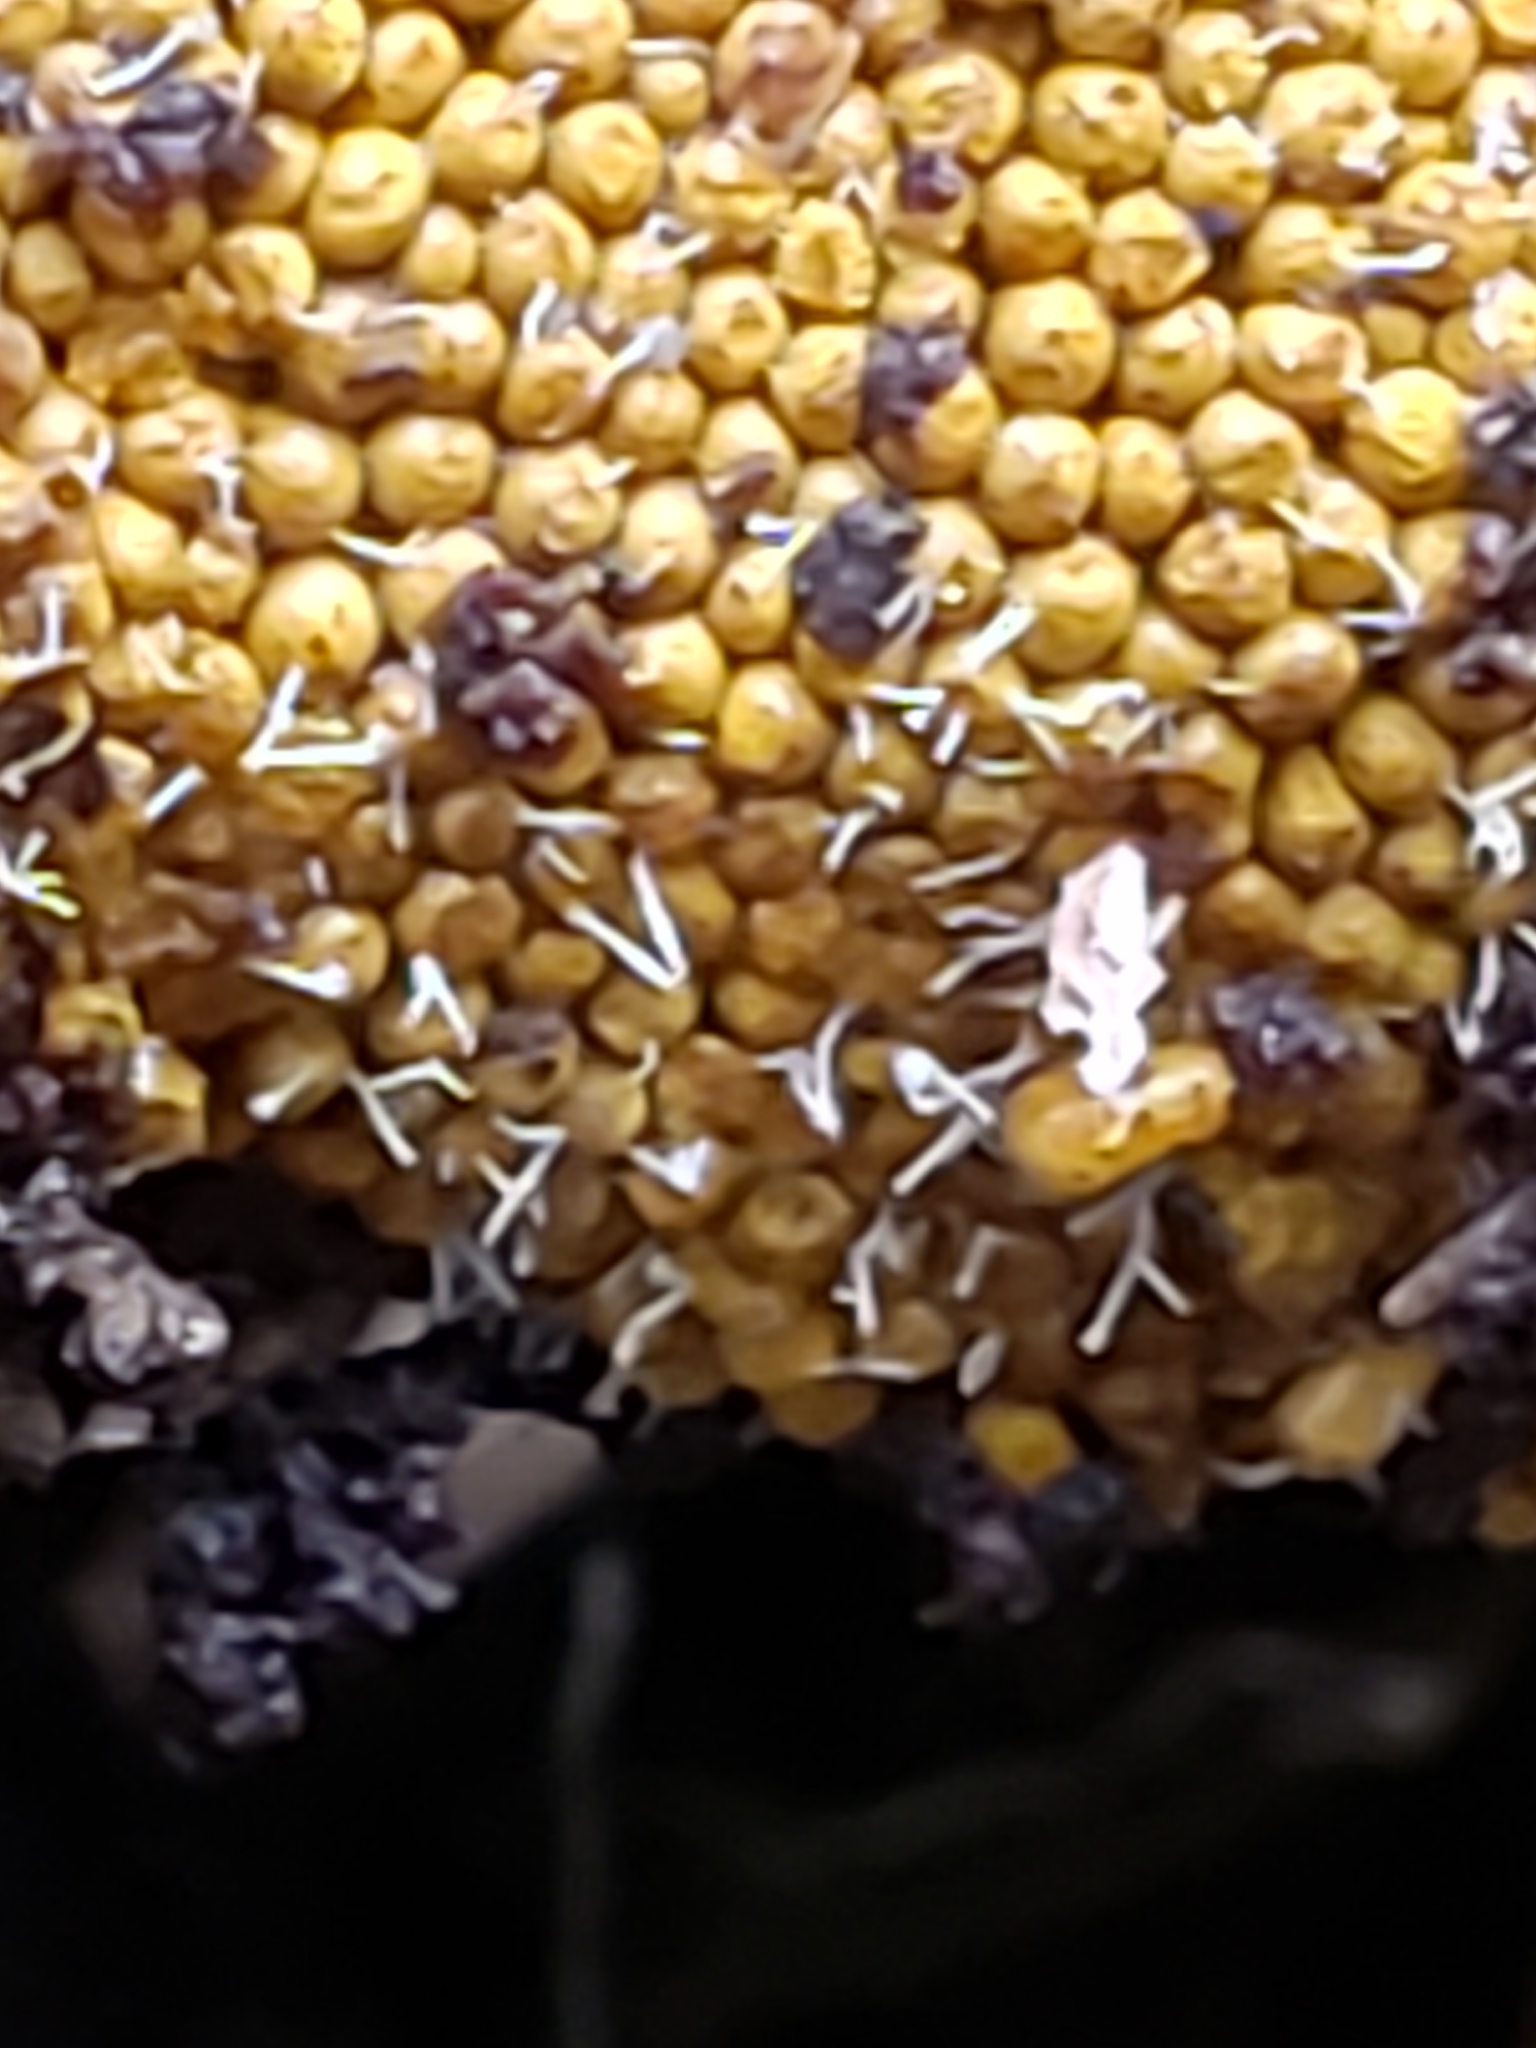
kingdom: Fungi
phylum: Ascomycota
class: Sordariomycetes
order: Hypocreales
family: Ophiocordycipitaceae
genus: Polycephalomyces
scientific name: Polycephalomyces tomentosus
